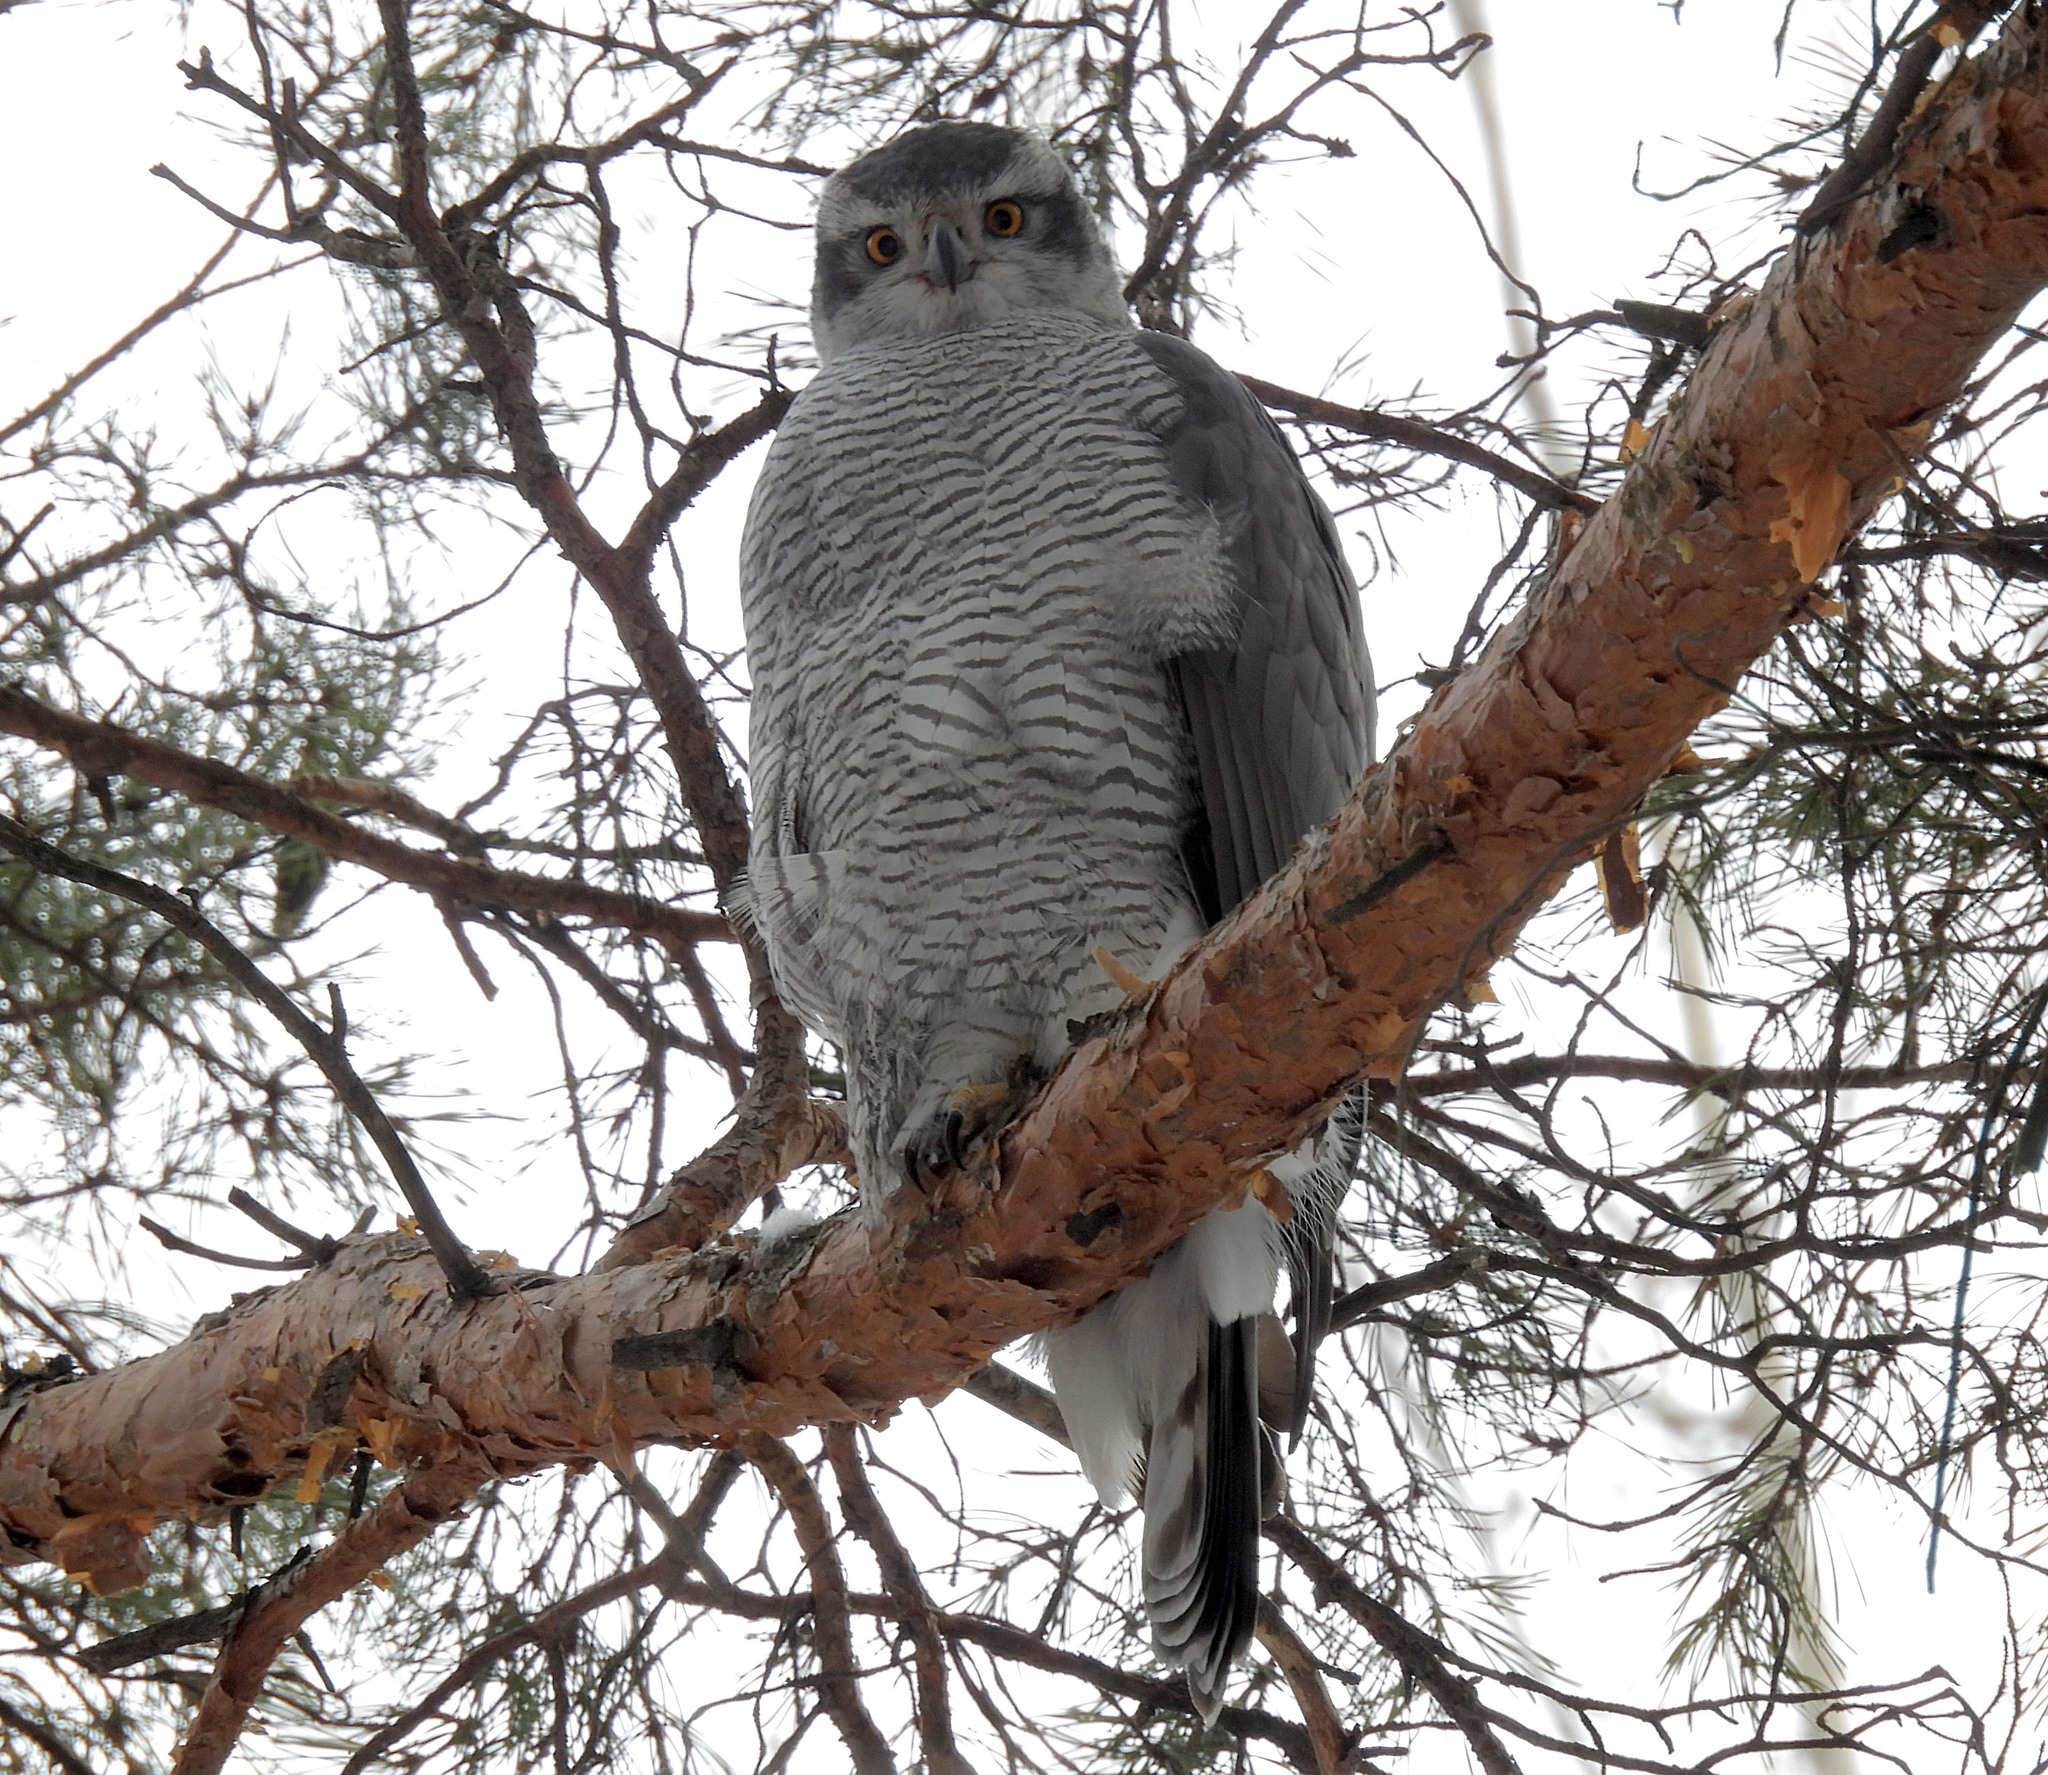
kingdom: Animalia
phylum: Chordata
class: Aves
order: Accipitriformes
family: Accipitridae
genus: Accipiter
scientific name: Accipiter gentilis
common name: Northern goshawk
